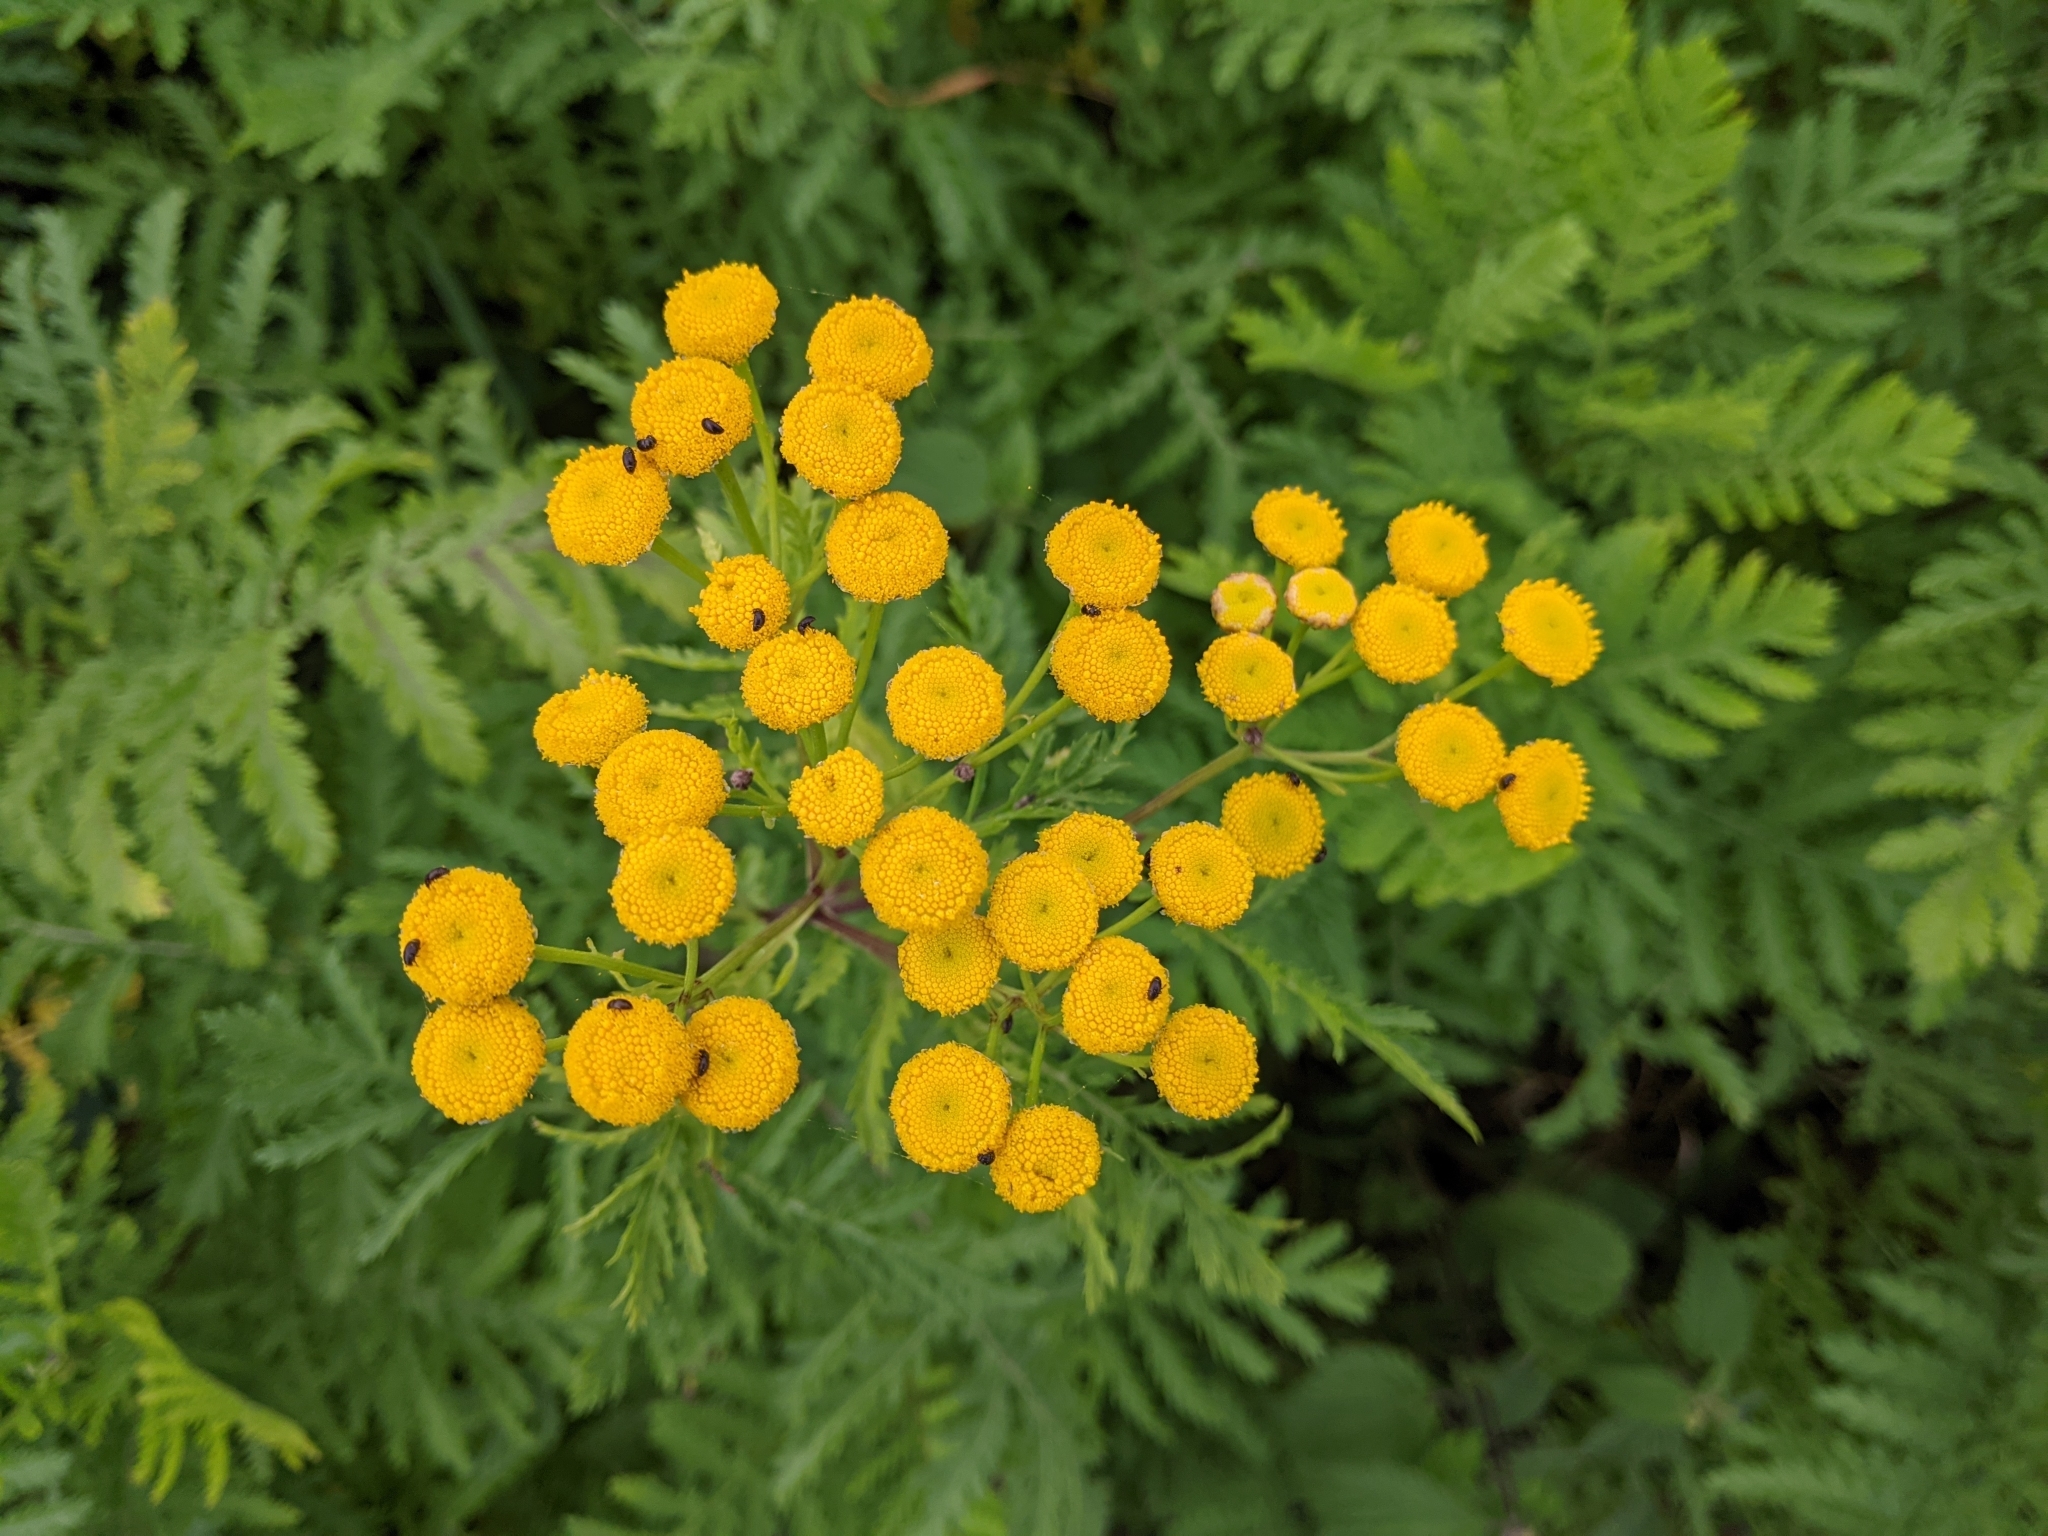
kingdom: Plantae
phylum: Tracheophyta
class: Magnoliopsida
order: Asterales
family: Asteraceae
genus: Tanacetum
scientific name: Tanacetum vulgare
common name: Common tansy
